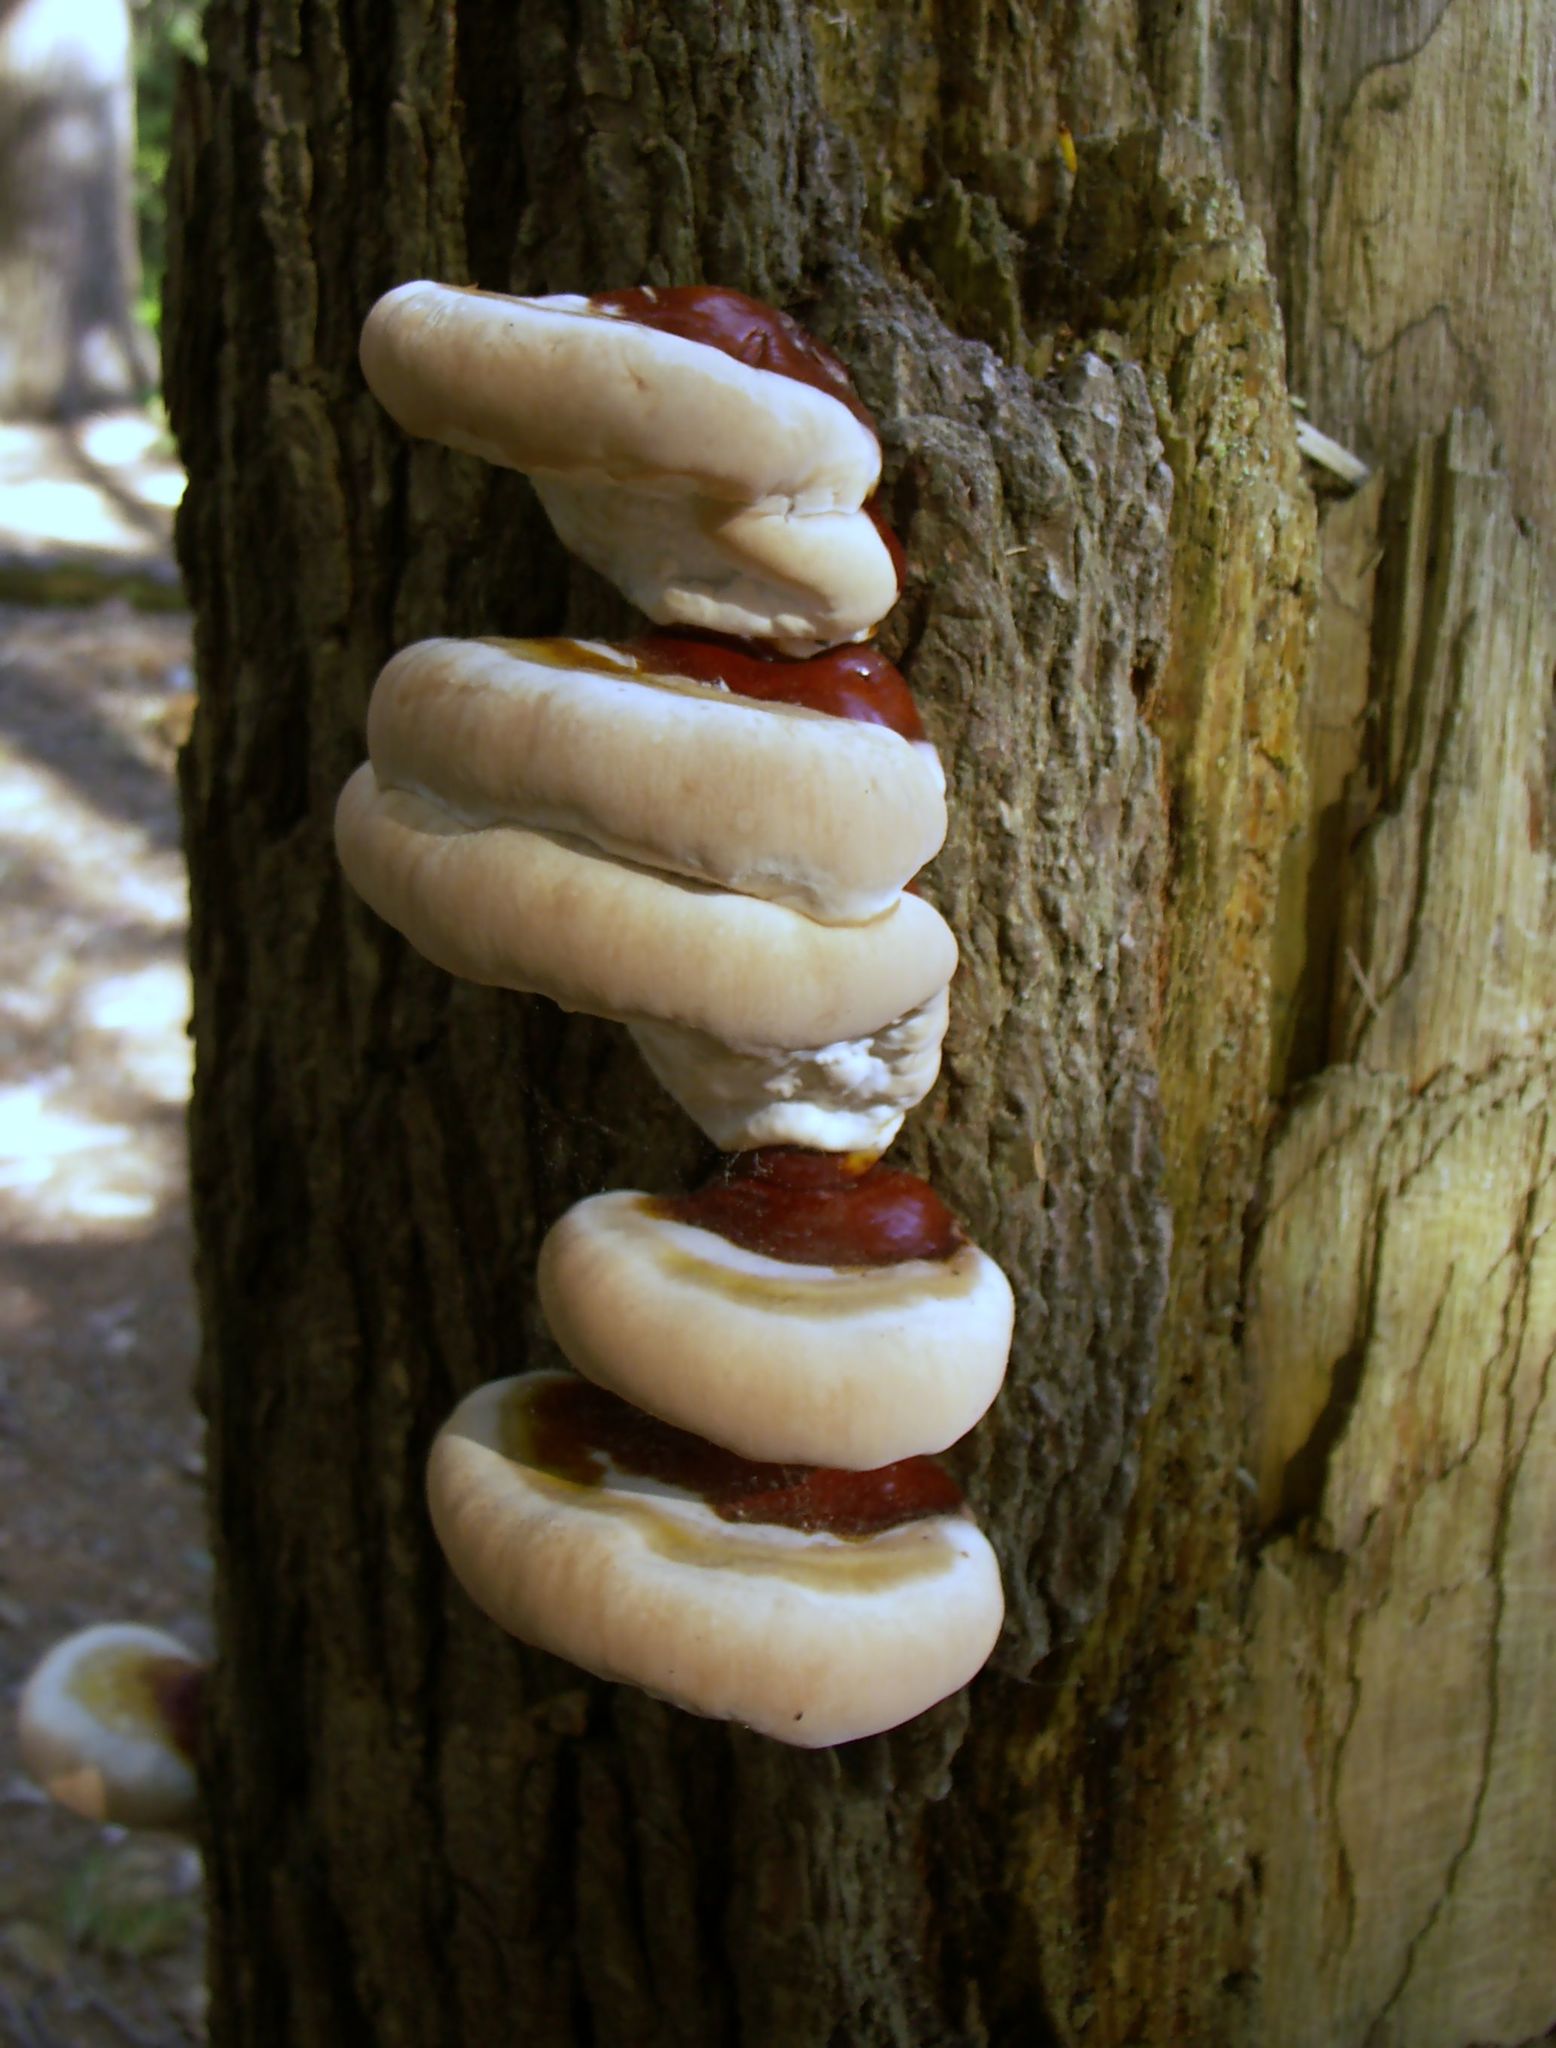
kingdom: Fungi
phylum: Basidiomycota
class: Agaricomycetes
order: Polyporales
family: Polyporaceae
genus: Ganoderma
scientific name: Ganoderma tsugae
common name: Hemlock varnish shelf
